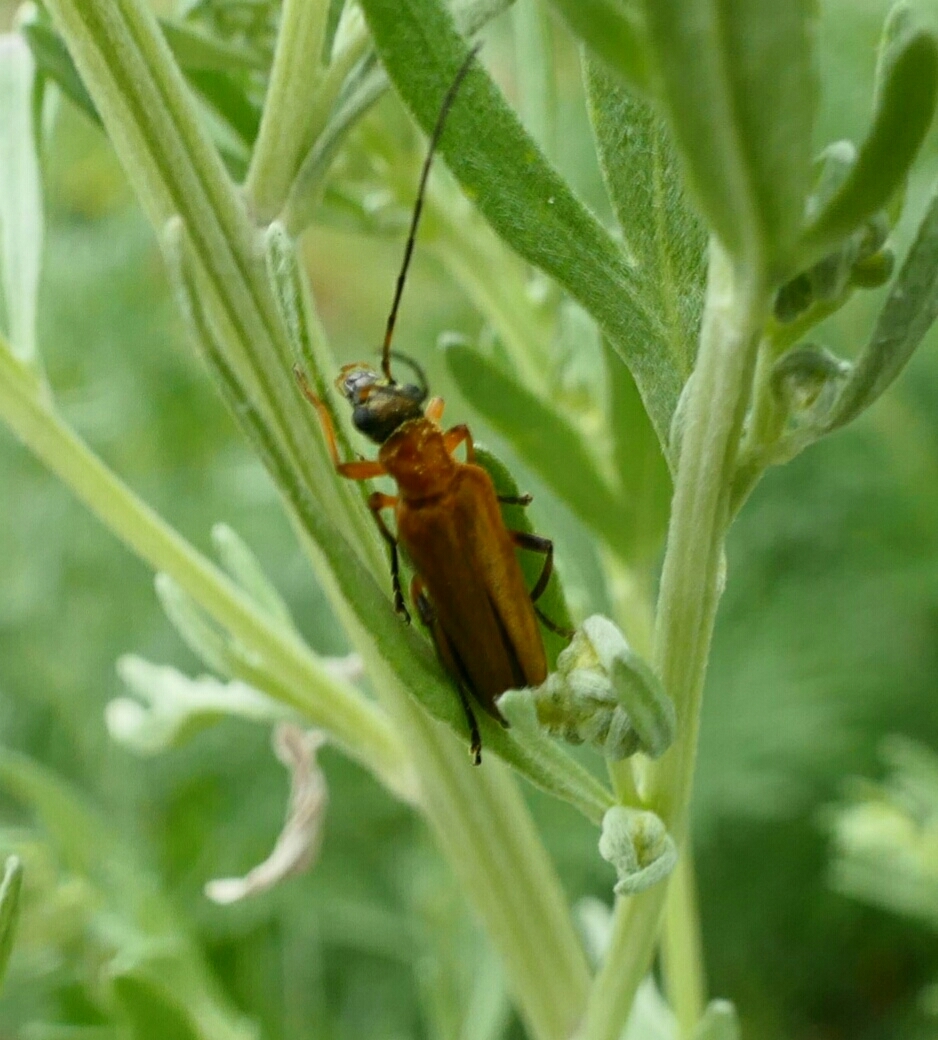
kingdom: Animalia
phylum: Arthropoda
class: Insecta
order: Coleoptera
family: Oedemeridae
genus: Oedemera
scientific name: Oedemera podagrariae
